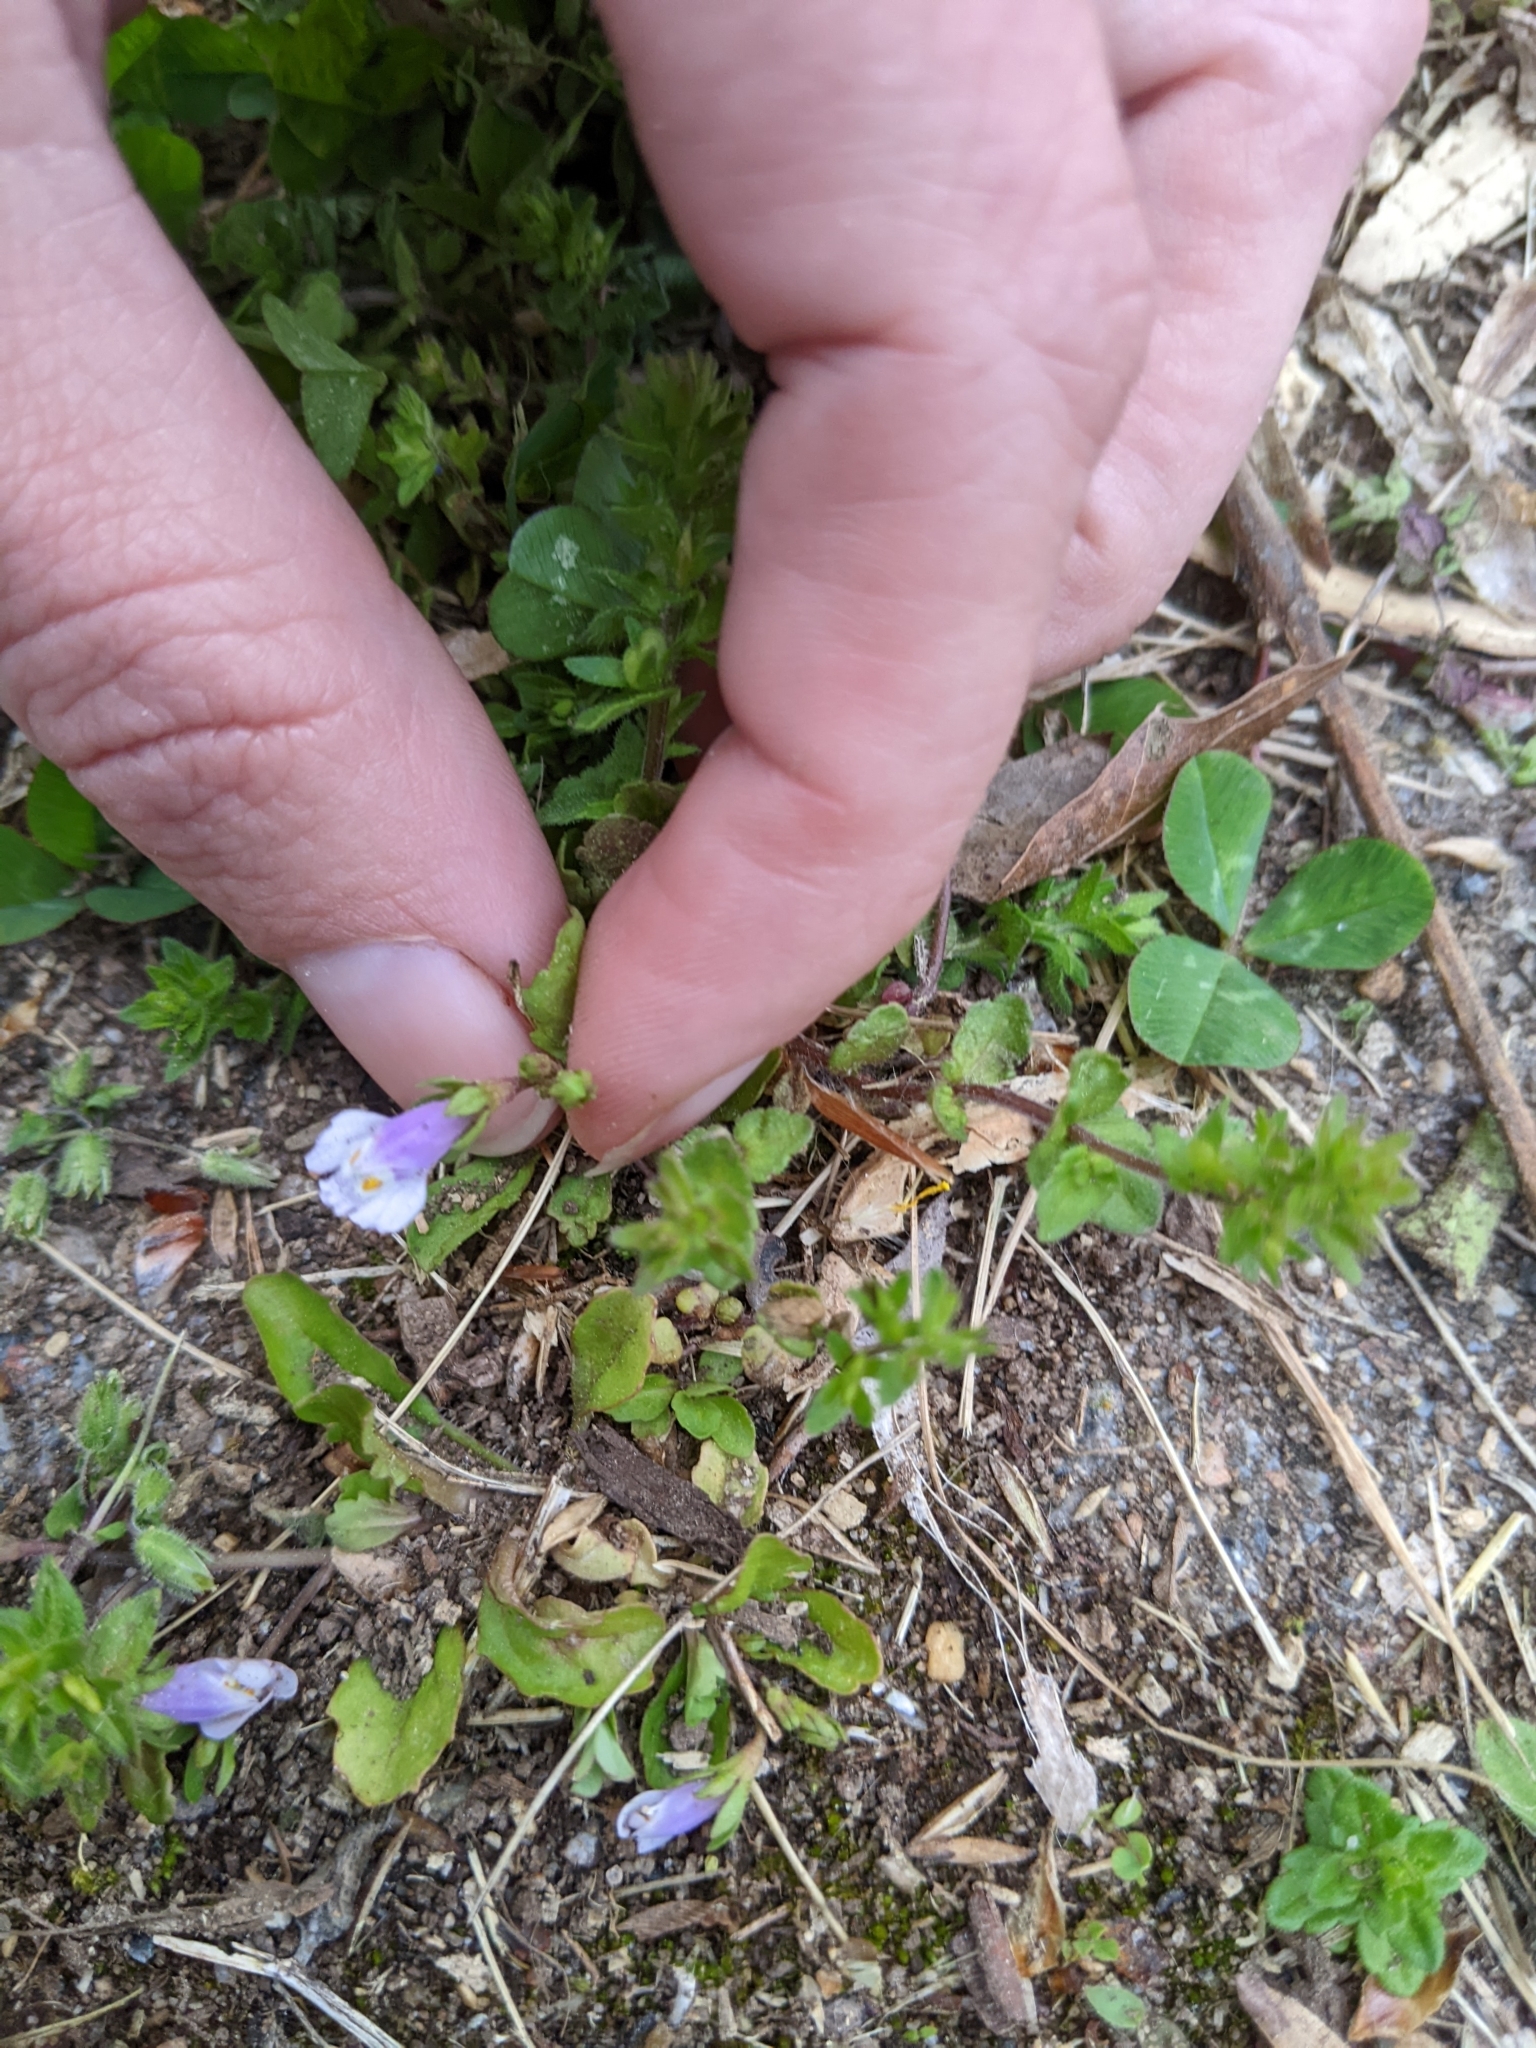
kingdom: Plantae
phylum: Tracheophyta
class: Magnoliopsida
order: Lamiales
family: Mazaceae
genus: Mazus
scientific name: Mazus pumilus
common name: Japanese mazus
